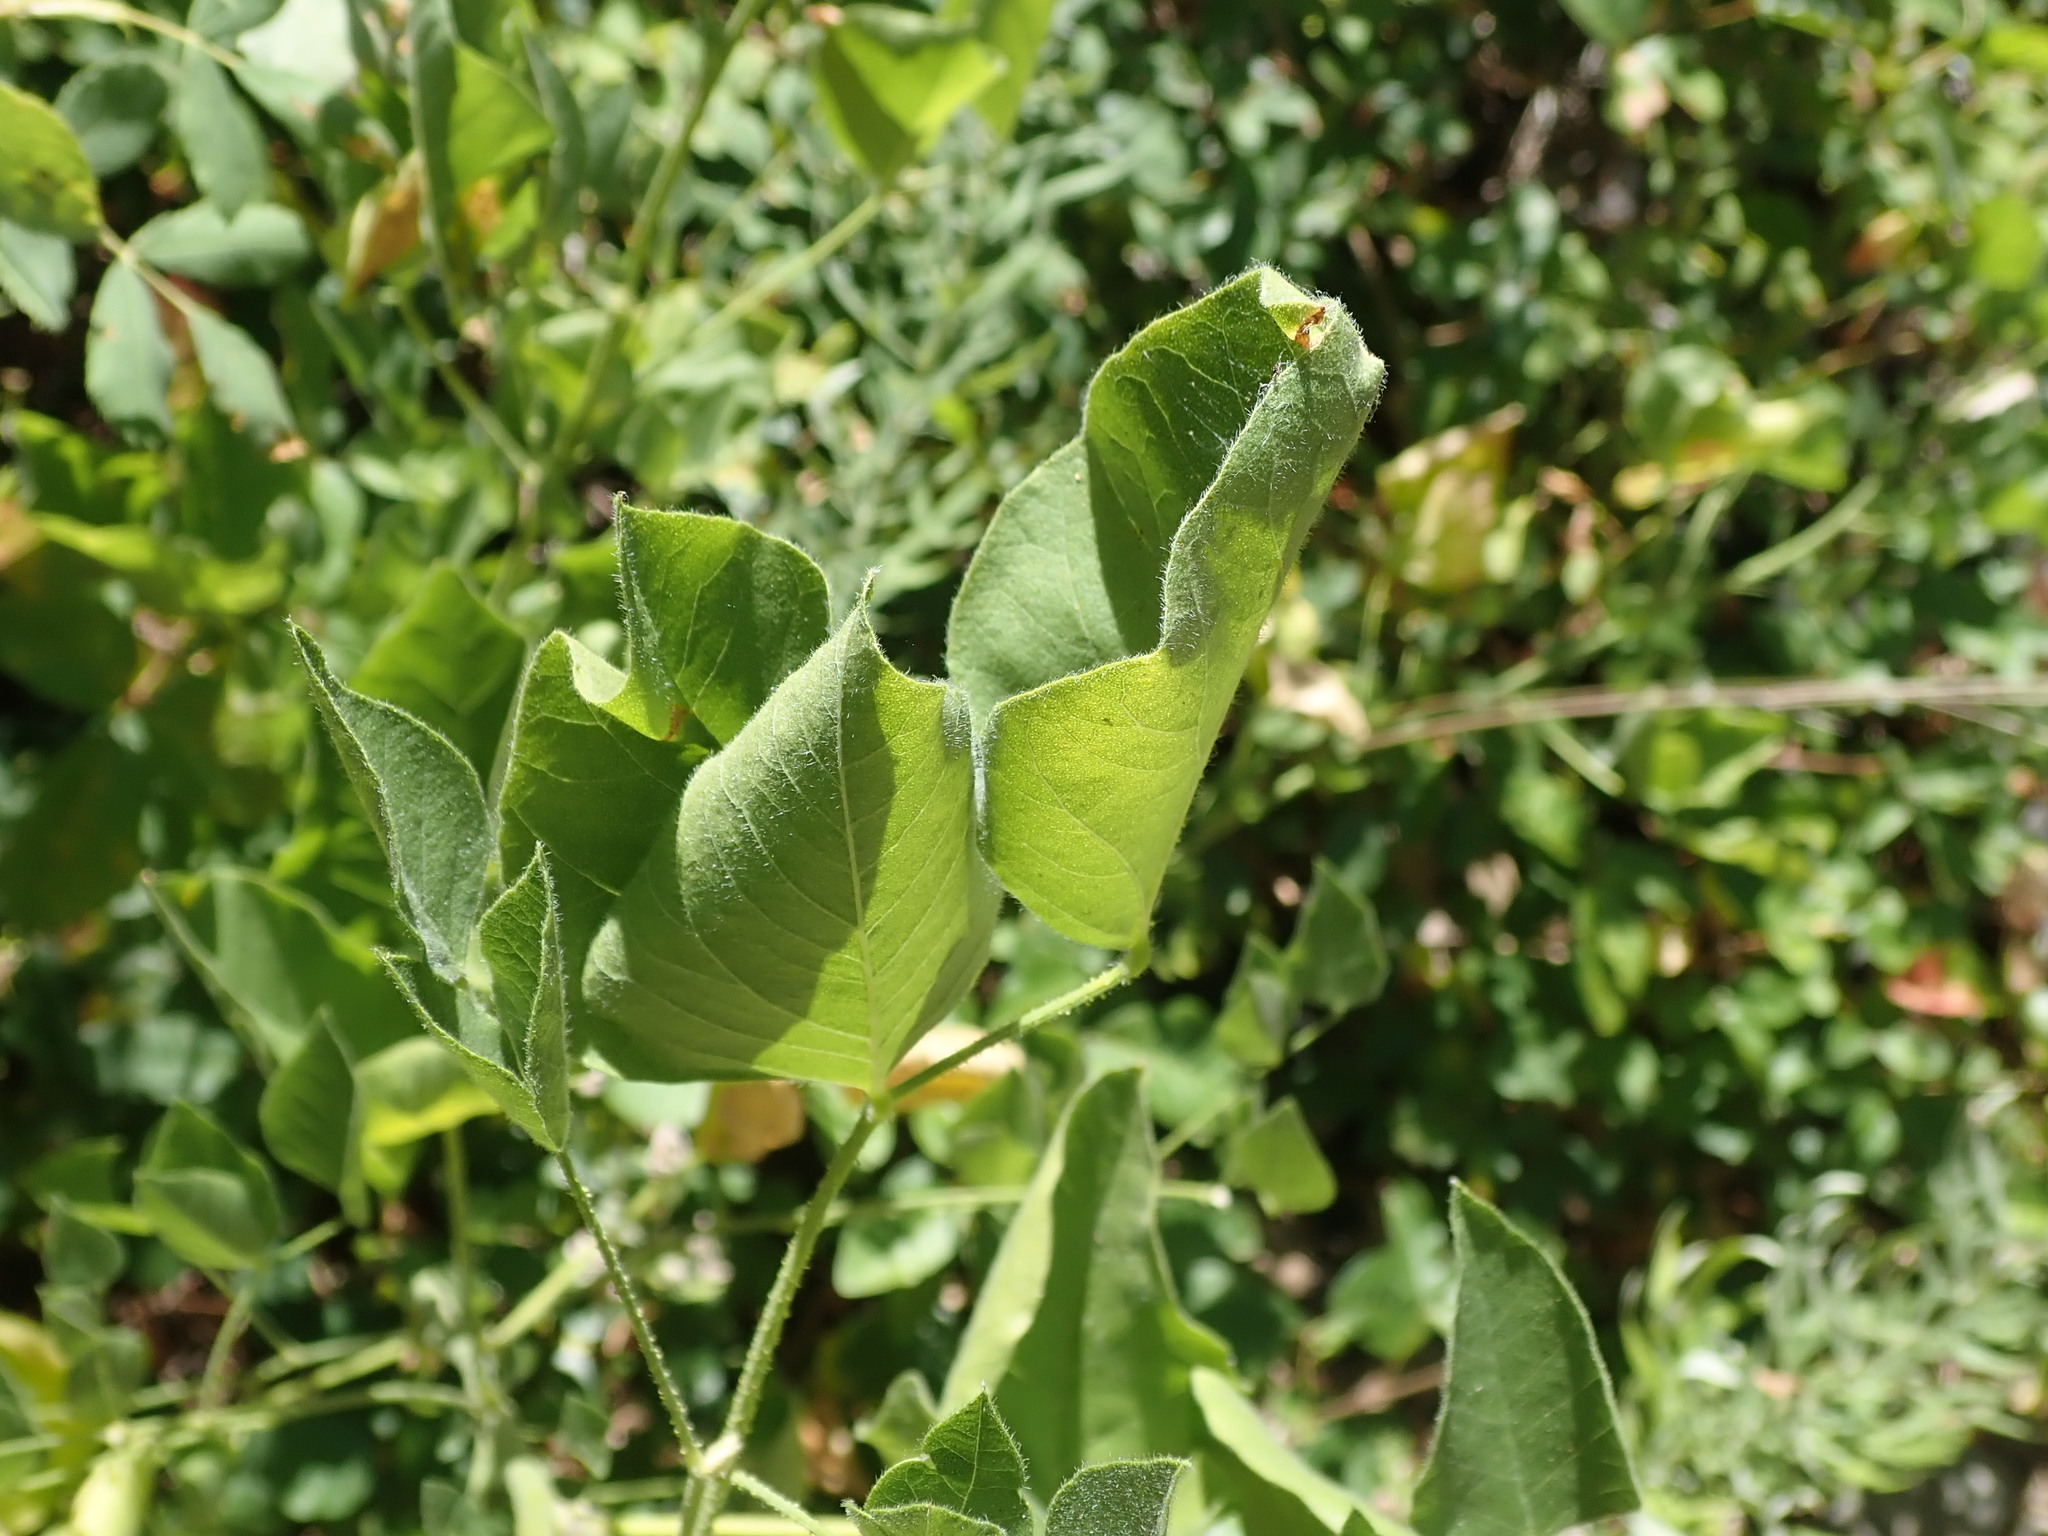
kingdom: Plantae
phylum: Tracheophyta
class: Magnoliopsida
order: Fabales
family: Fabaceae
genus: Hoita
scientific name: Hoita macrostachya
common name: Leatherroot
